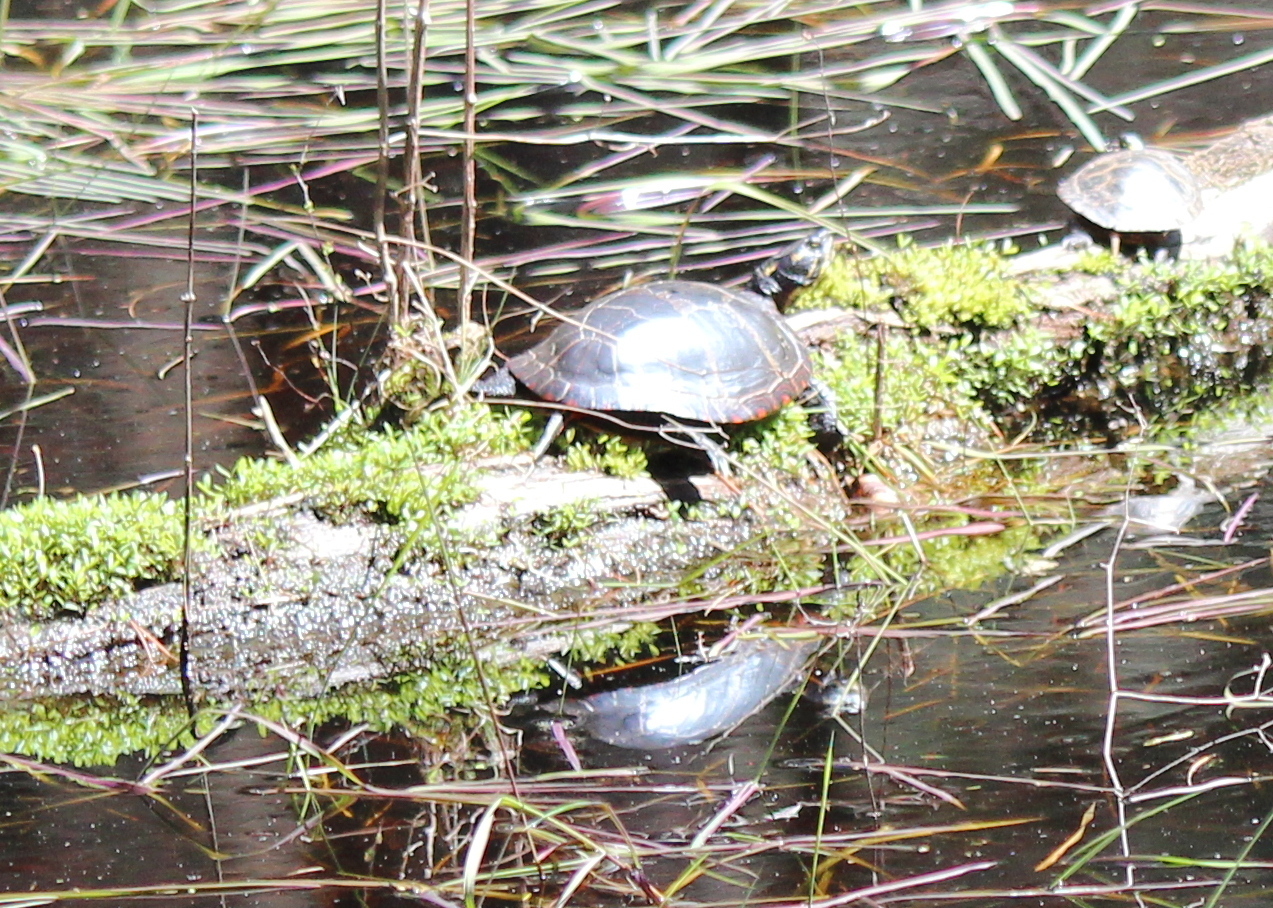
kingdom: Animalia
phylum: Chordata
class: Testudines
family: Emydidae
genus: Chrysemys
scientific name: Chrysemys picta
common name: Painted turtle
